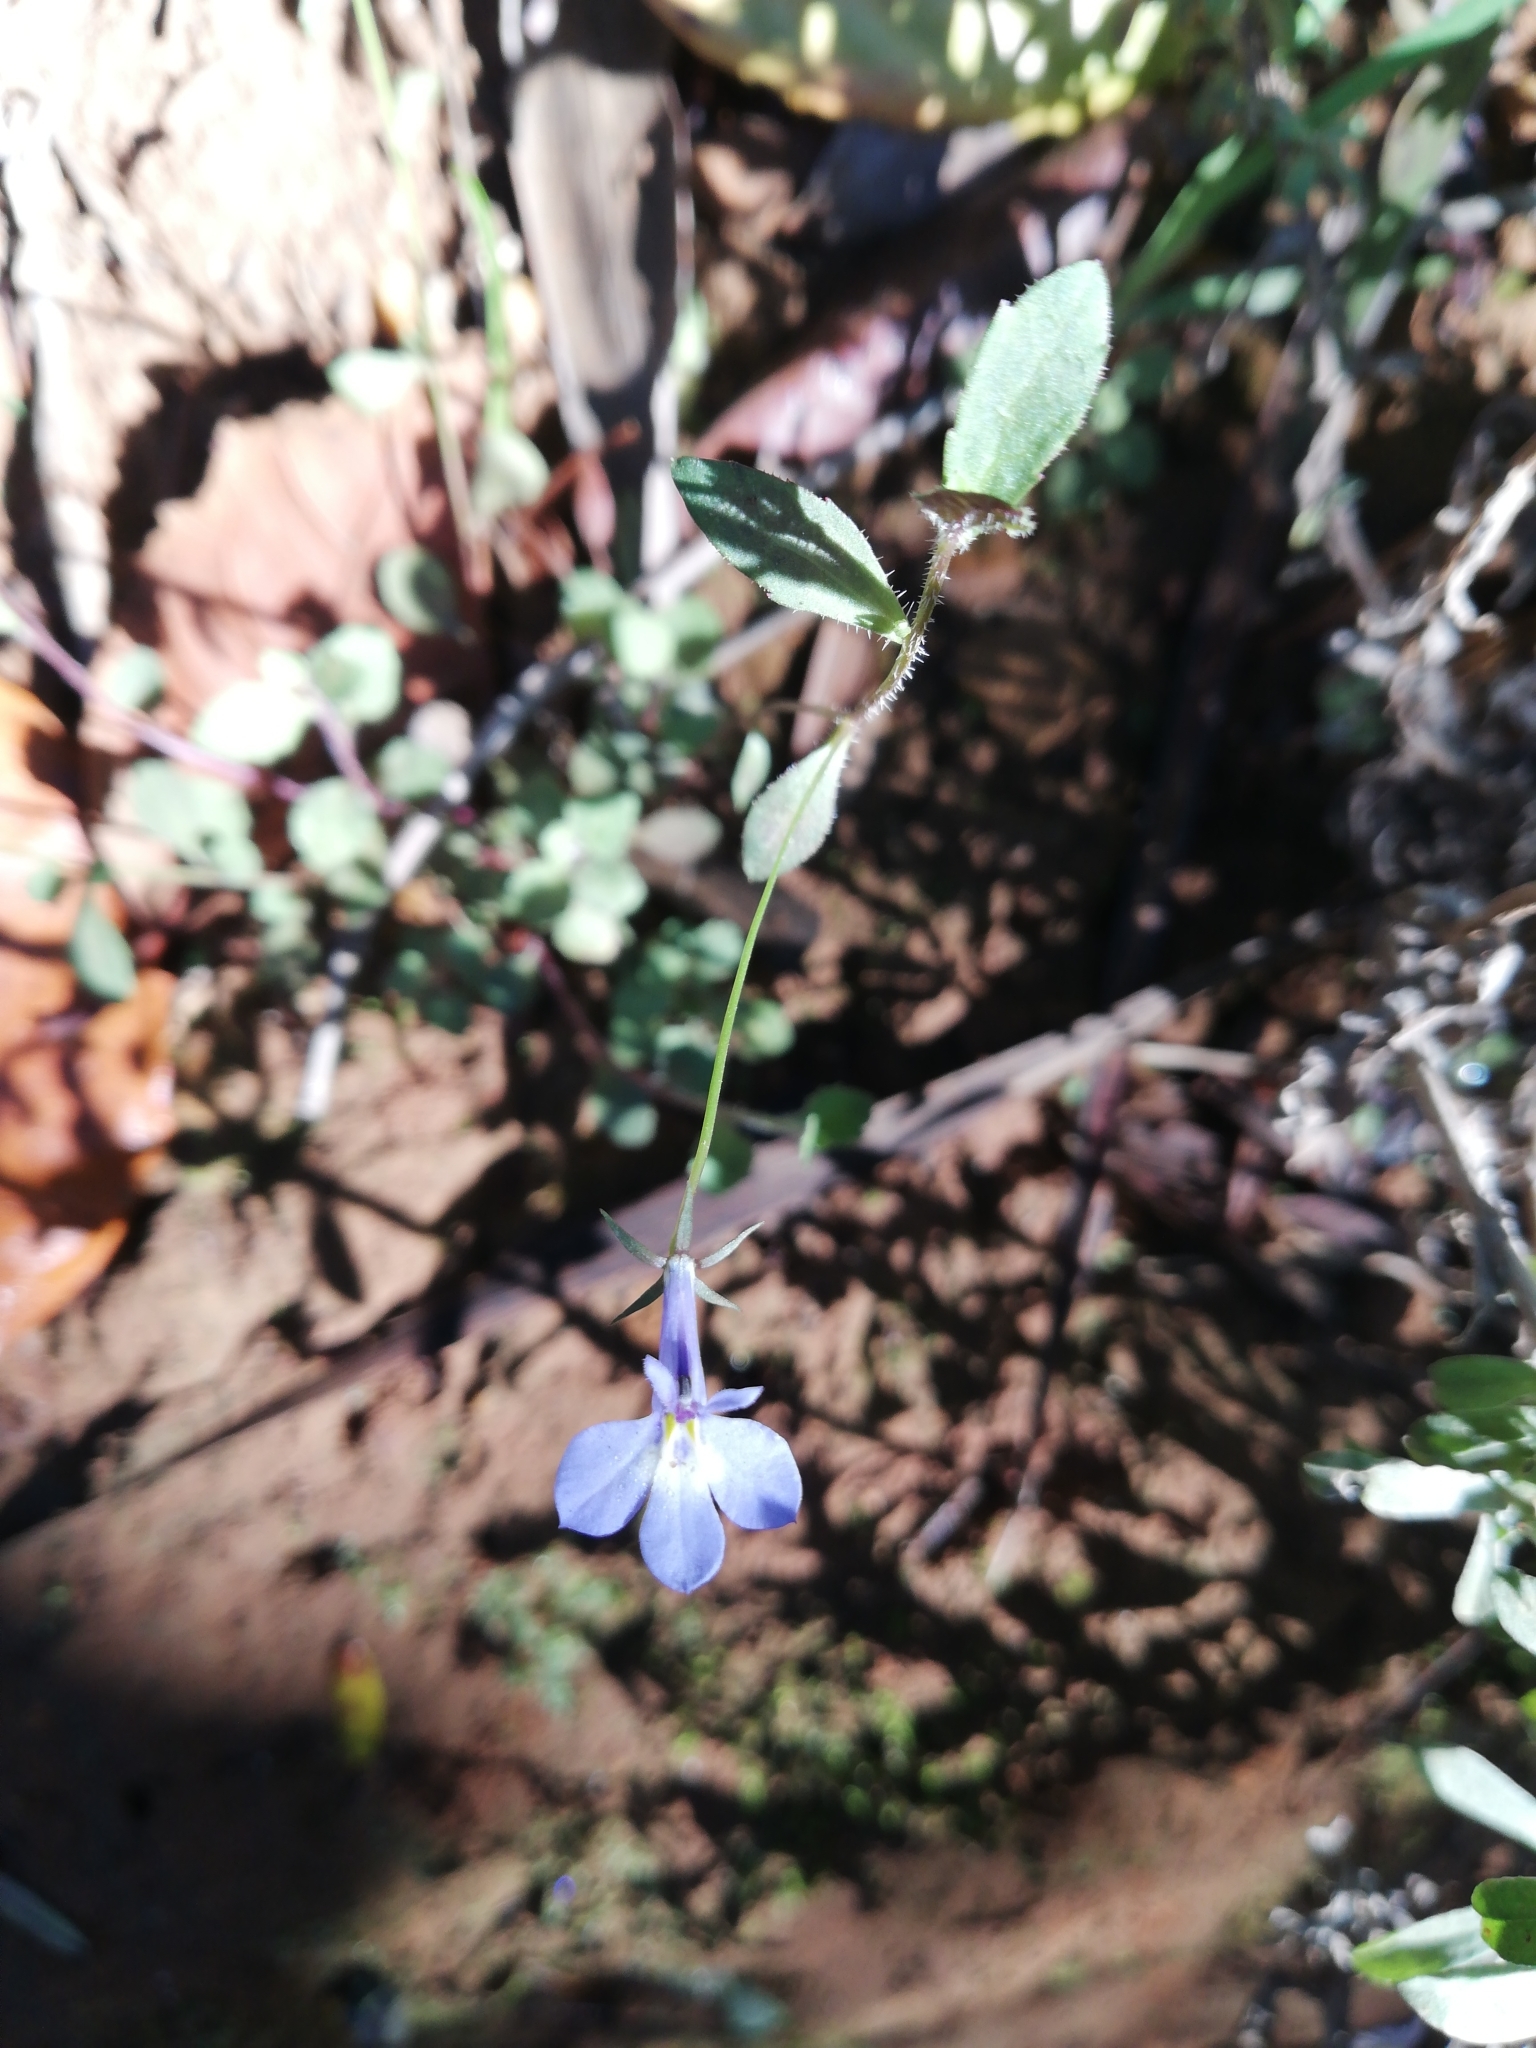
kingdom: Plantae
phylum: Tracheophyta
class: Magnoliopsida
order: Asterales
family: Campanulaceae
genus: Lobelia
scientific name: Lobelia erinus
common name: Edging lobelia
